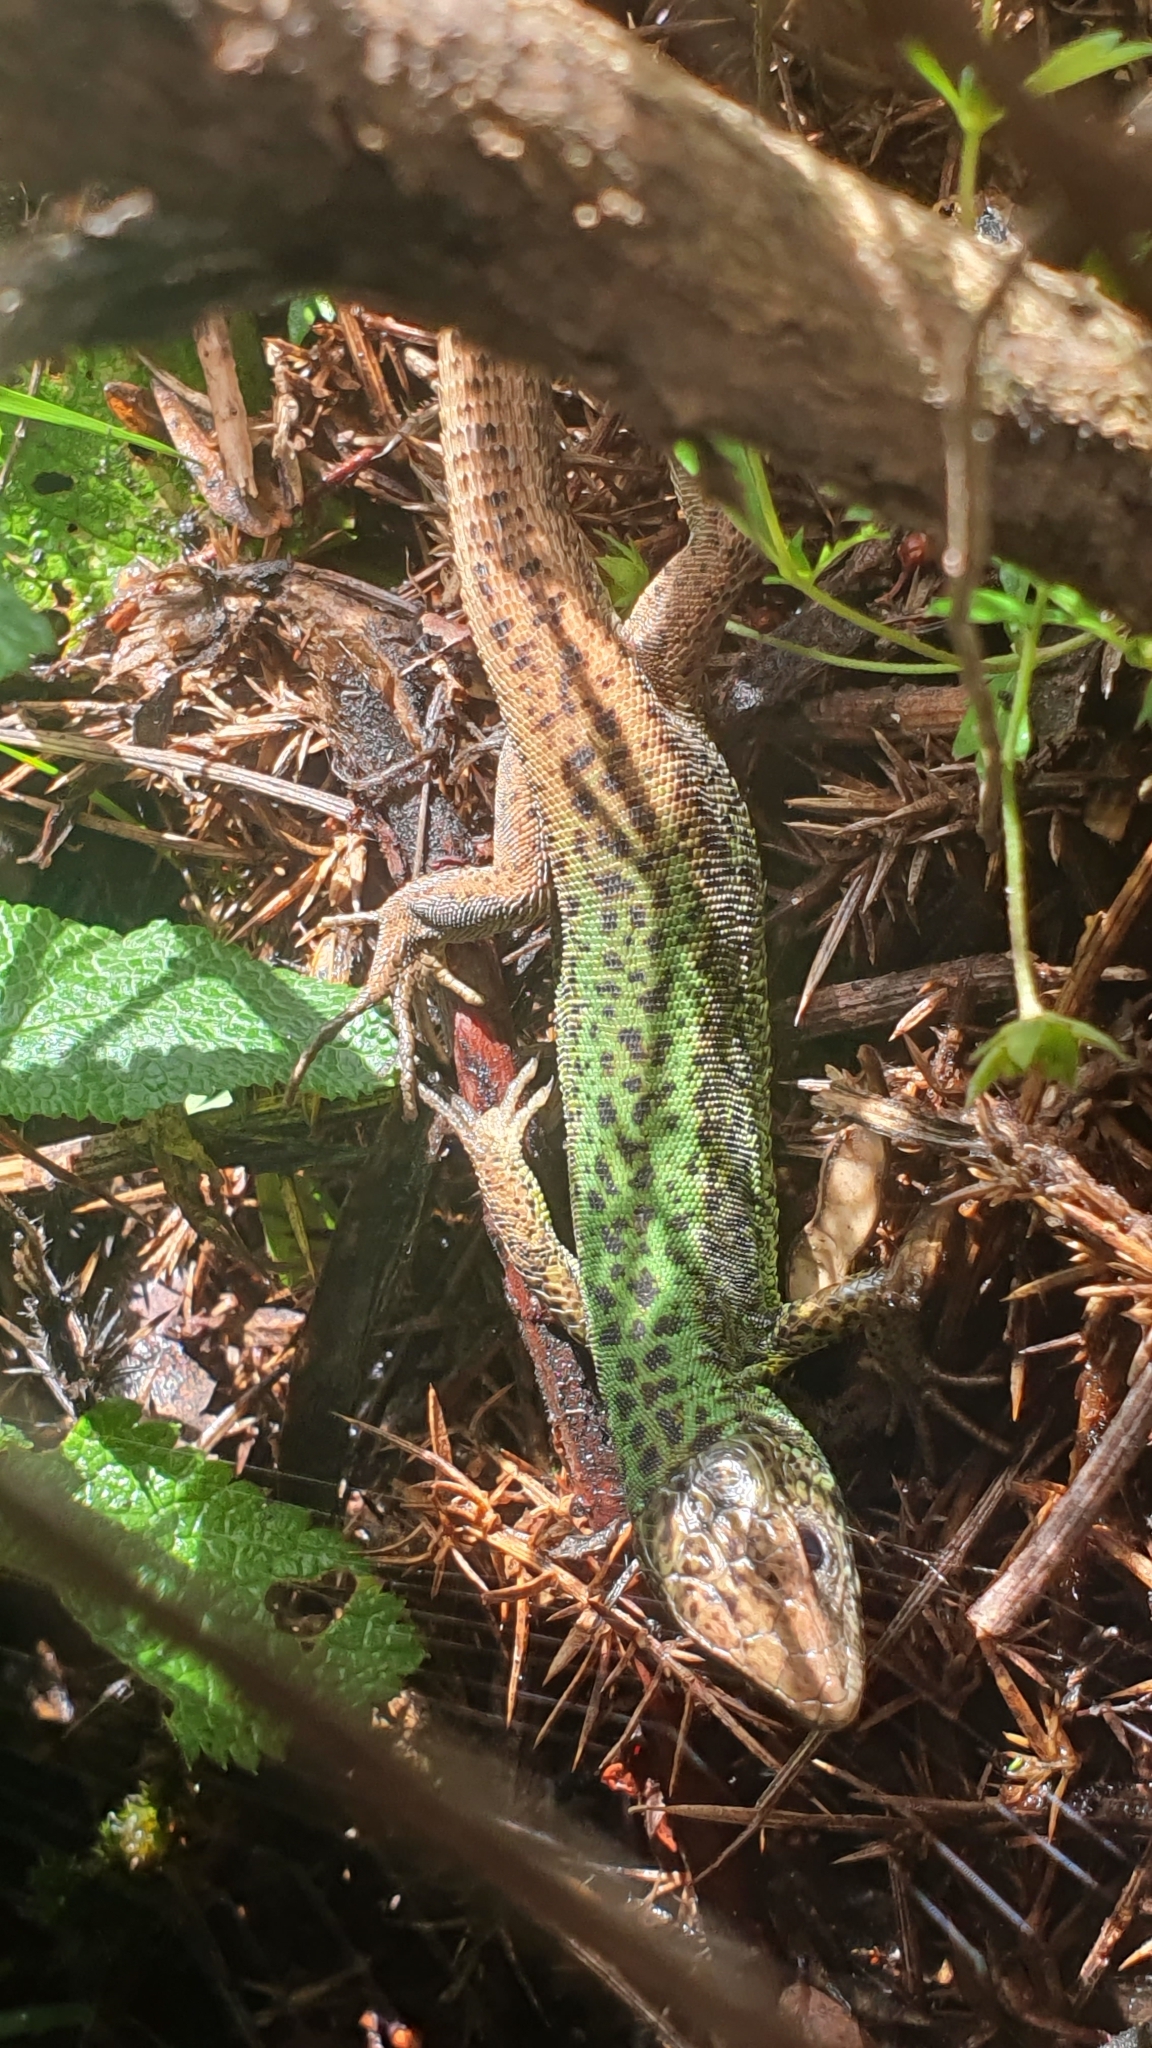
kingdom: Animalia
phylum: Chordata
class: Squamata
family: Lacertidae
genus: Lacerta
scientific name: Lacerta schreiberi
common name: Iberian emerald lizard
